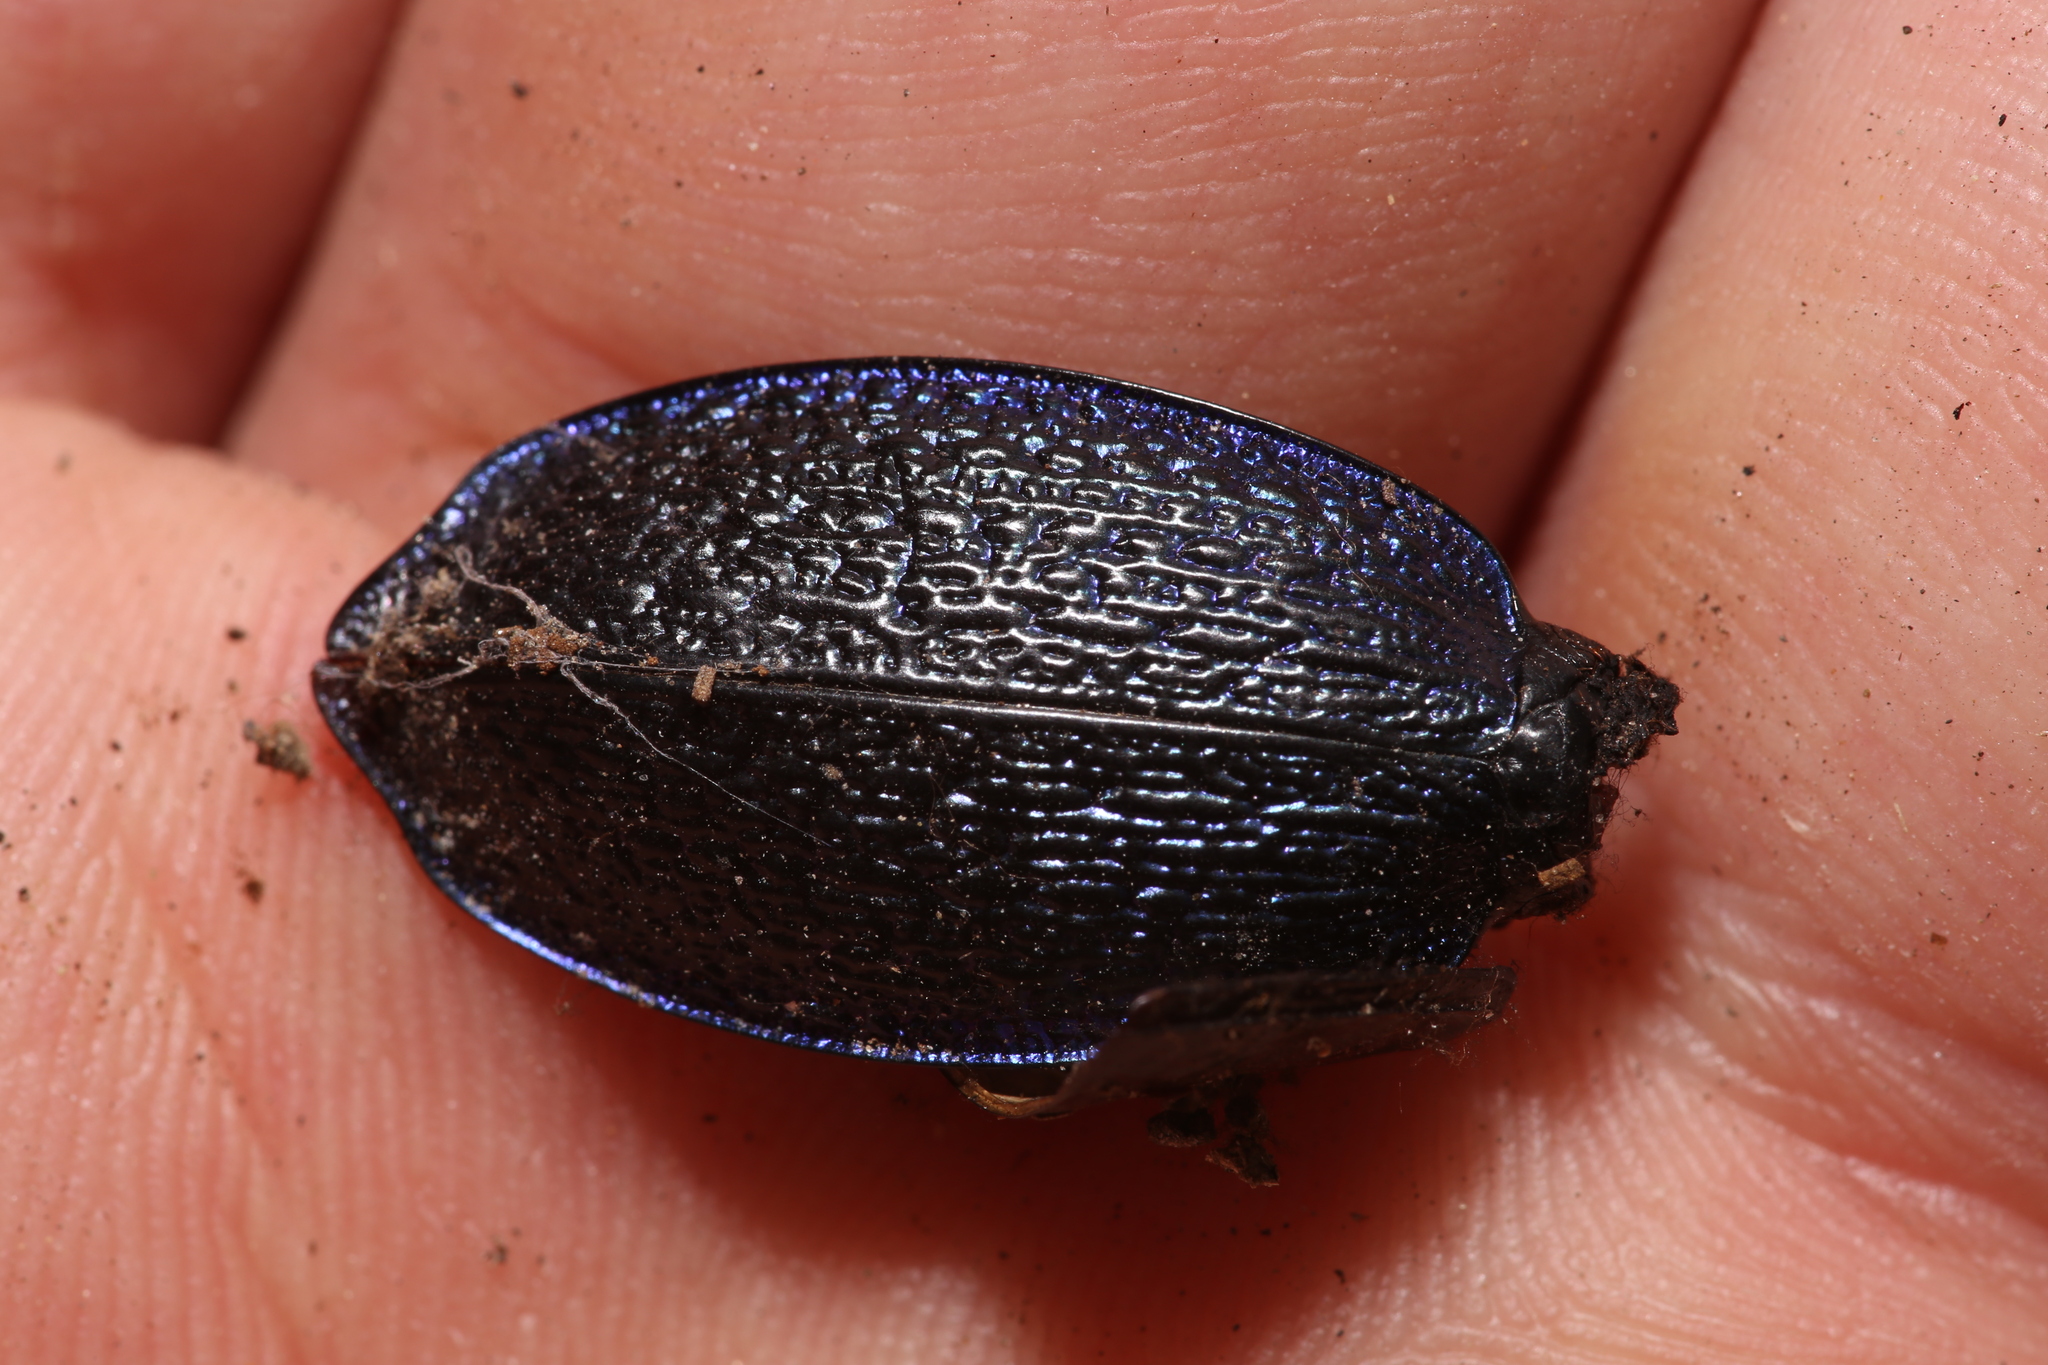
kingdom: Animalia
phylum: Arthropoda
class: Insecta
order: Coleoptera
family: Carabidae
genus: Carabus
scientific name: Carabus intricatus
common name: Blue ground beetle
